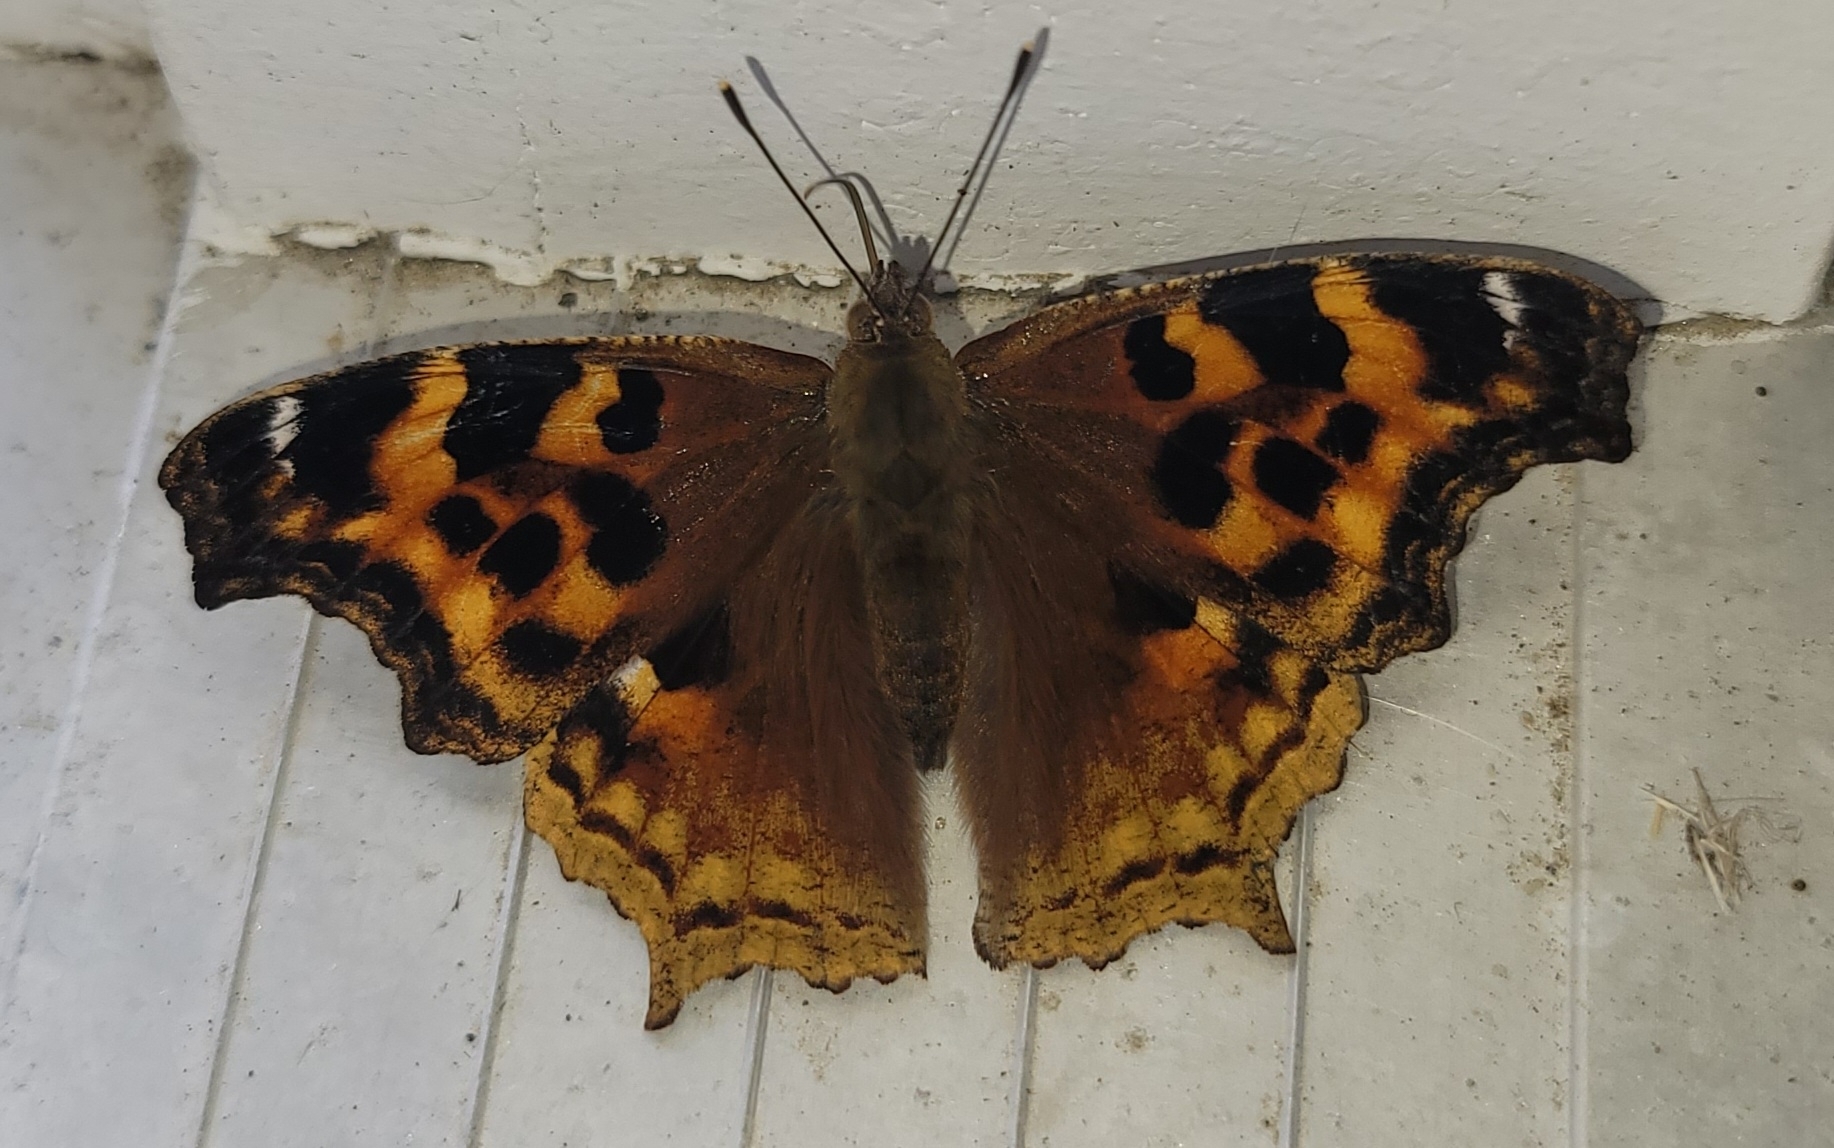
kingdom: Animalia
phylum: Arthropoda
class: Insecta
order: Lepidoptera
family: Nymphalidae
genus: Polygonia
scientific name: Polygonia vaualbum
